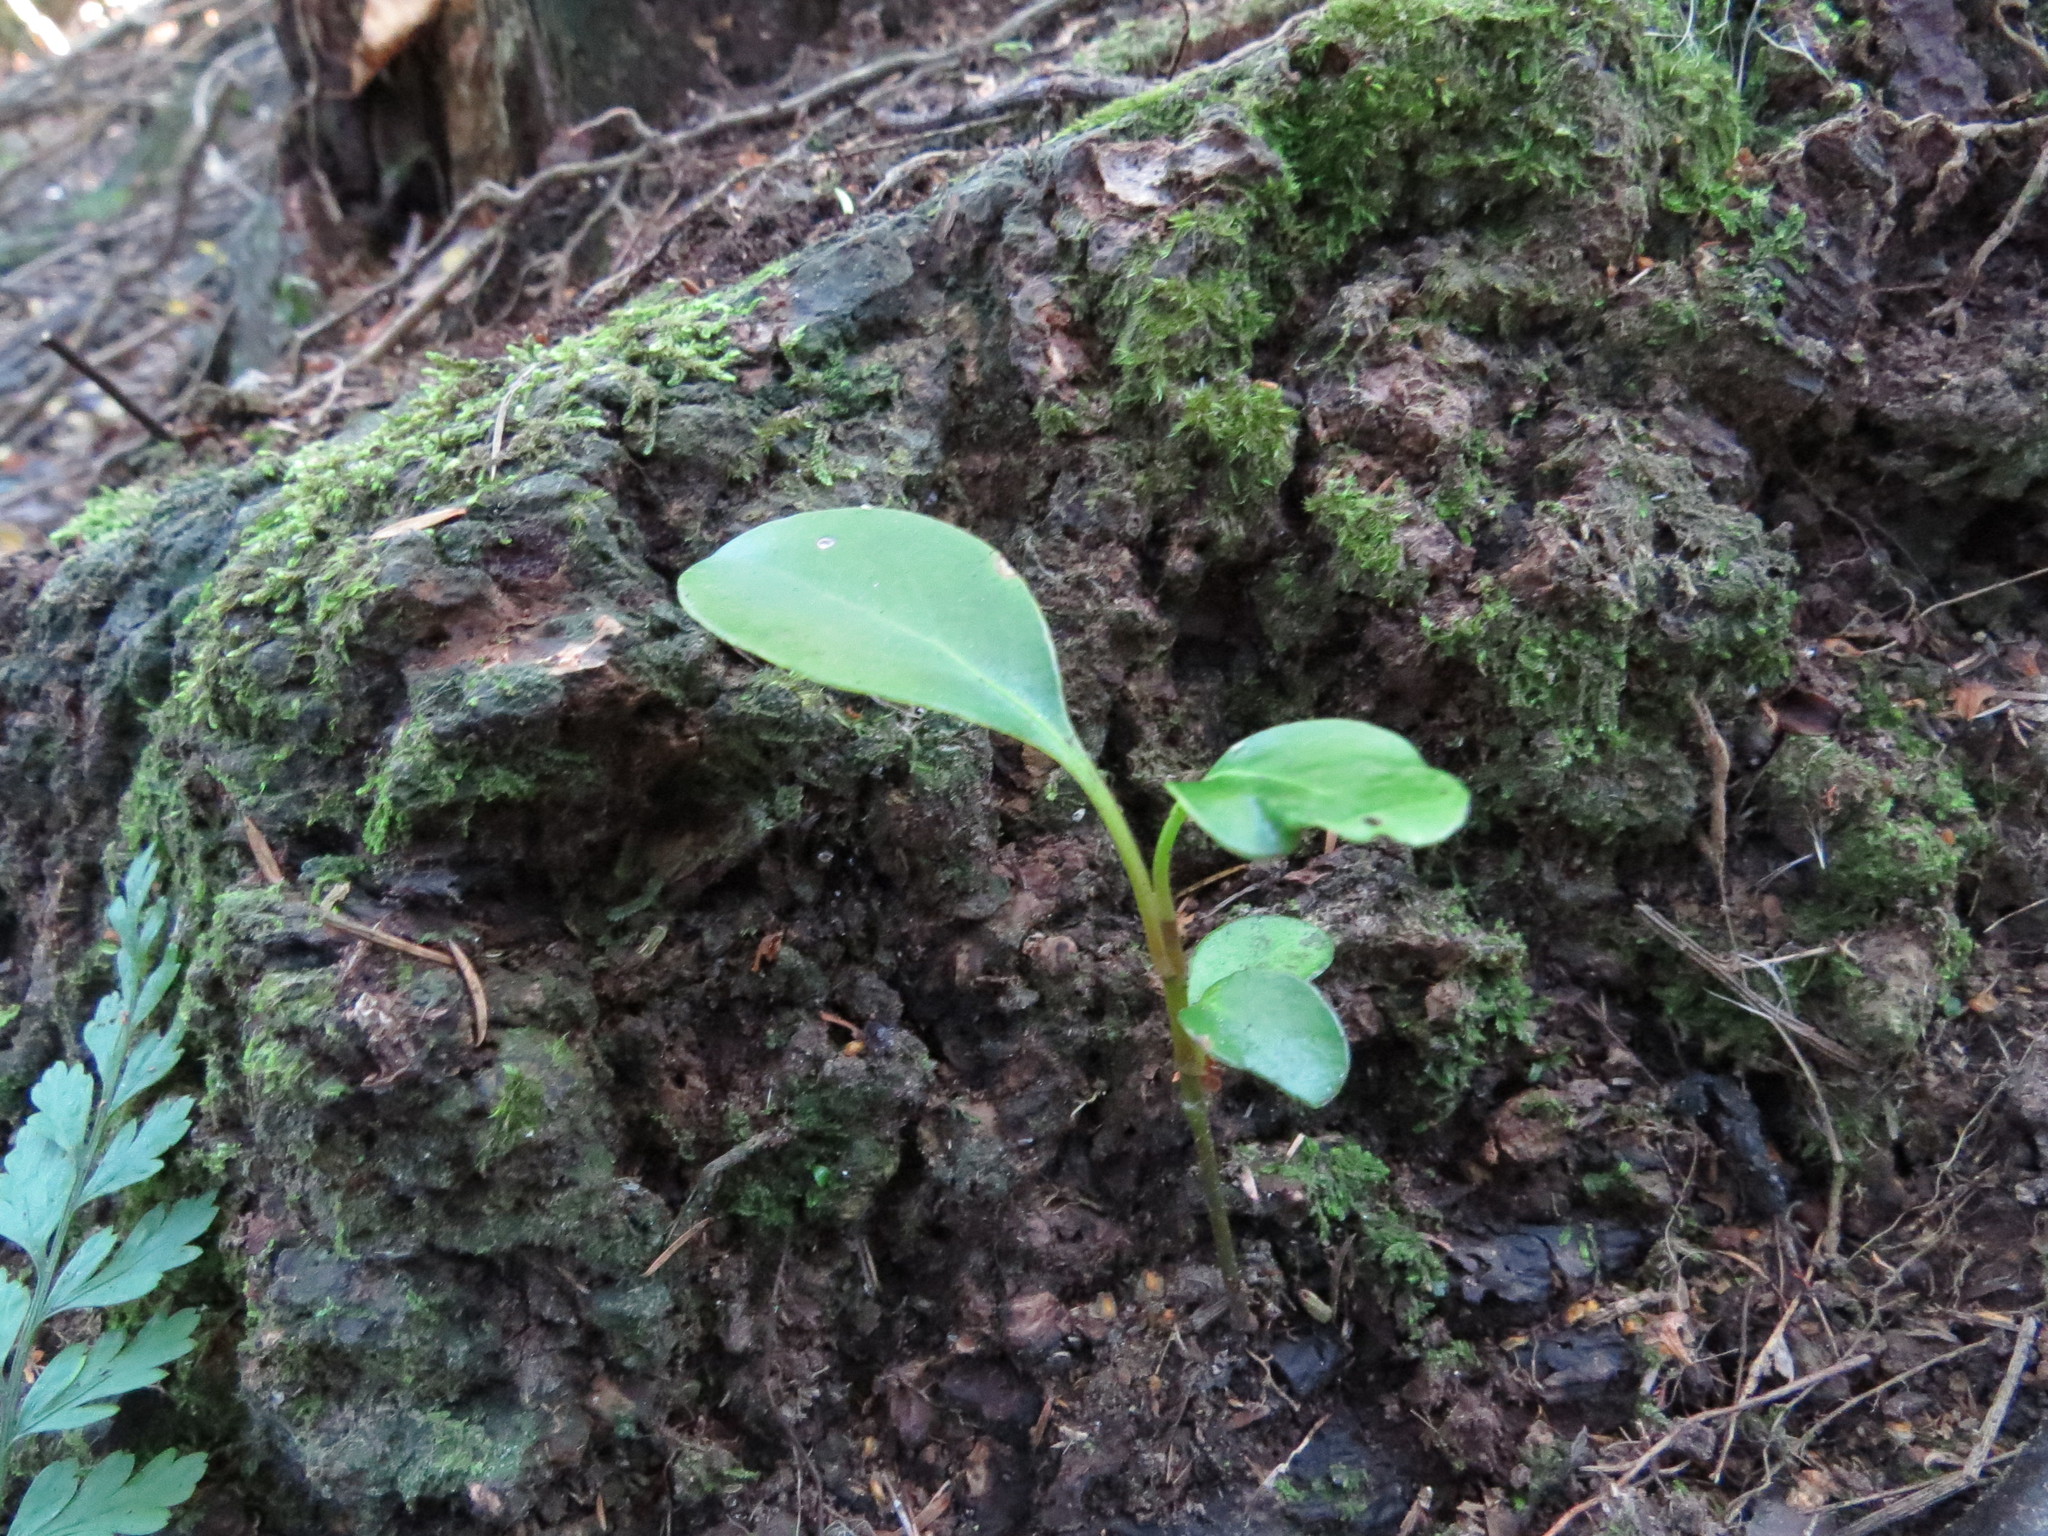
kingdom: Plantae
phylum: Tracheophyta
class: Magnoliopsida
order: Apiales
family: Griseliniaceae
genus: Griselinia
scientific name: Griselinia littoralis
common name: New zealand broadleaf
